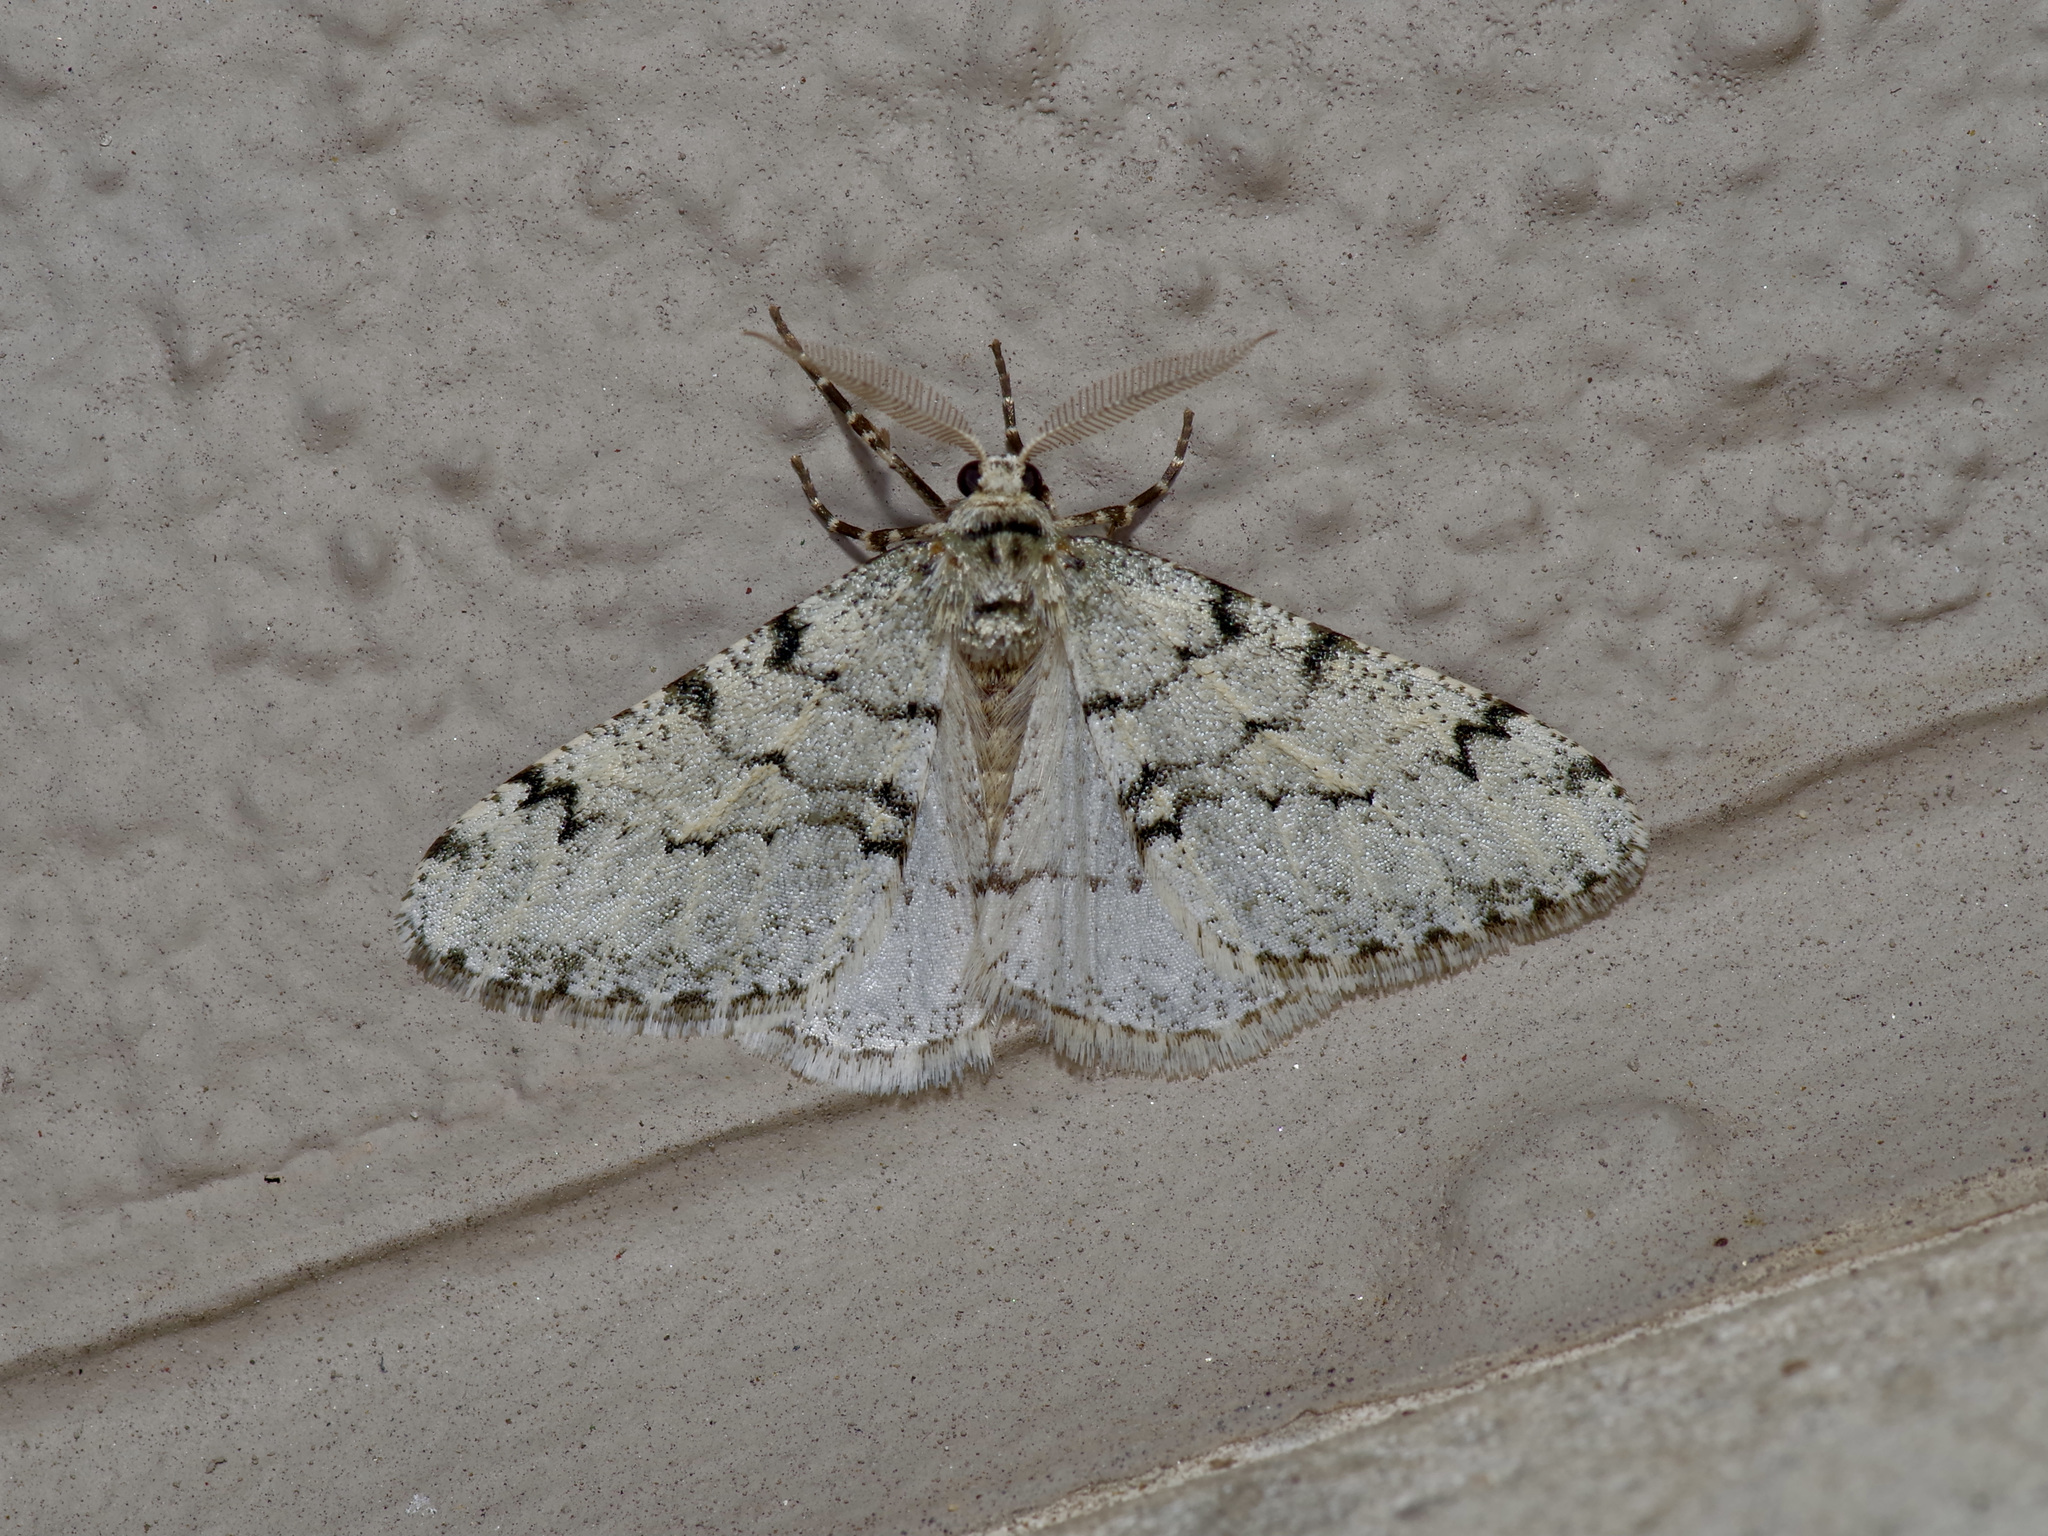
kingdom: Animalia
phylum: Arthropoda
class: Insecta
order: Lepidoptera
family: Geometridae
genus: Phigalia
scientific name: Phigalia strigataria
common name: Small phigalia
